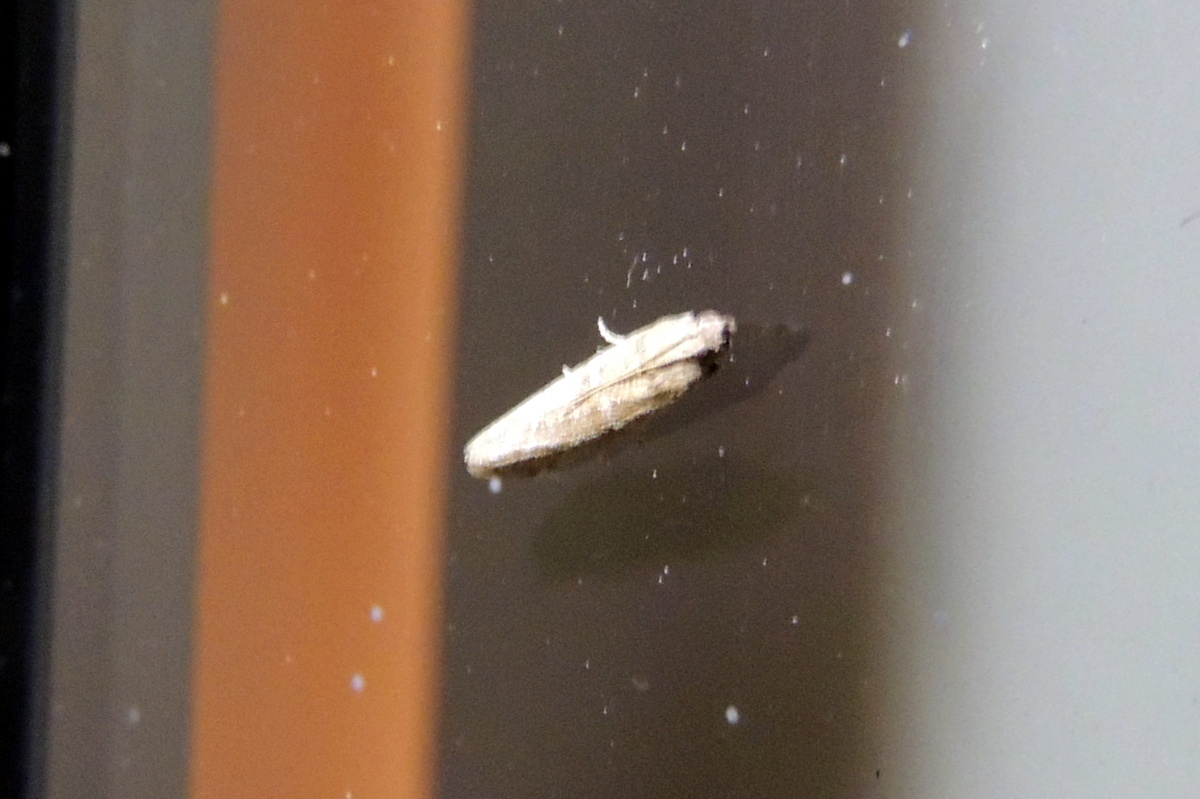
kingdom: Animalia
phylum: Arthropoda
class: Insecta
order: Lepidoptera
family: Erebidae
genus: Muscula
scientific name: Muscula muscula
